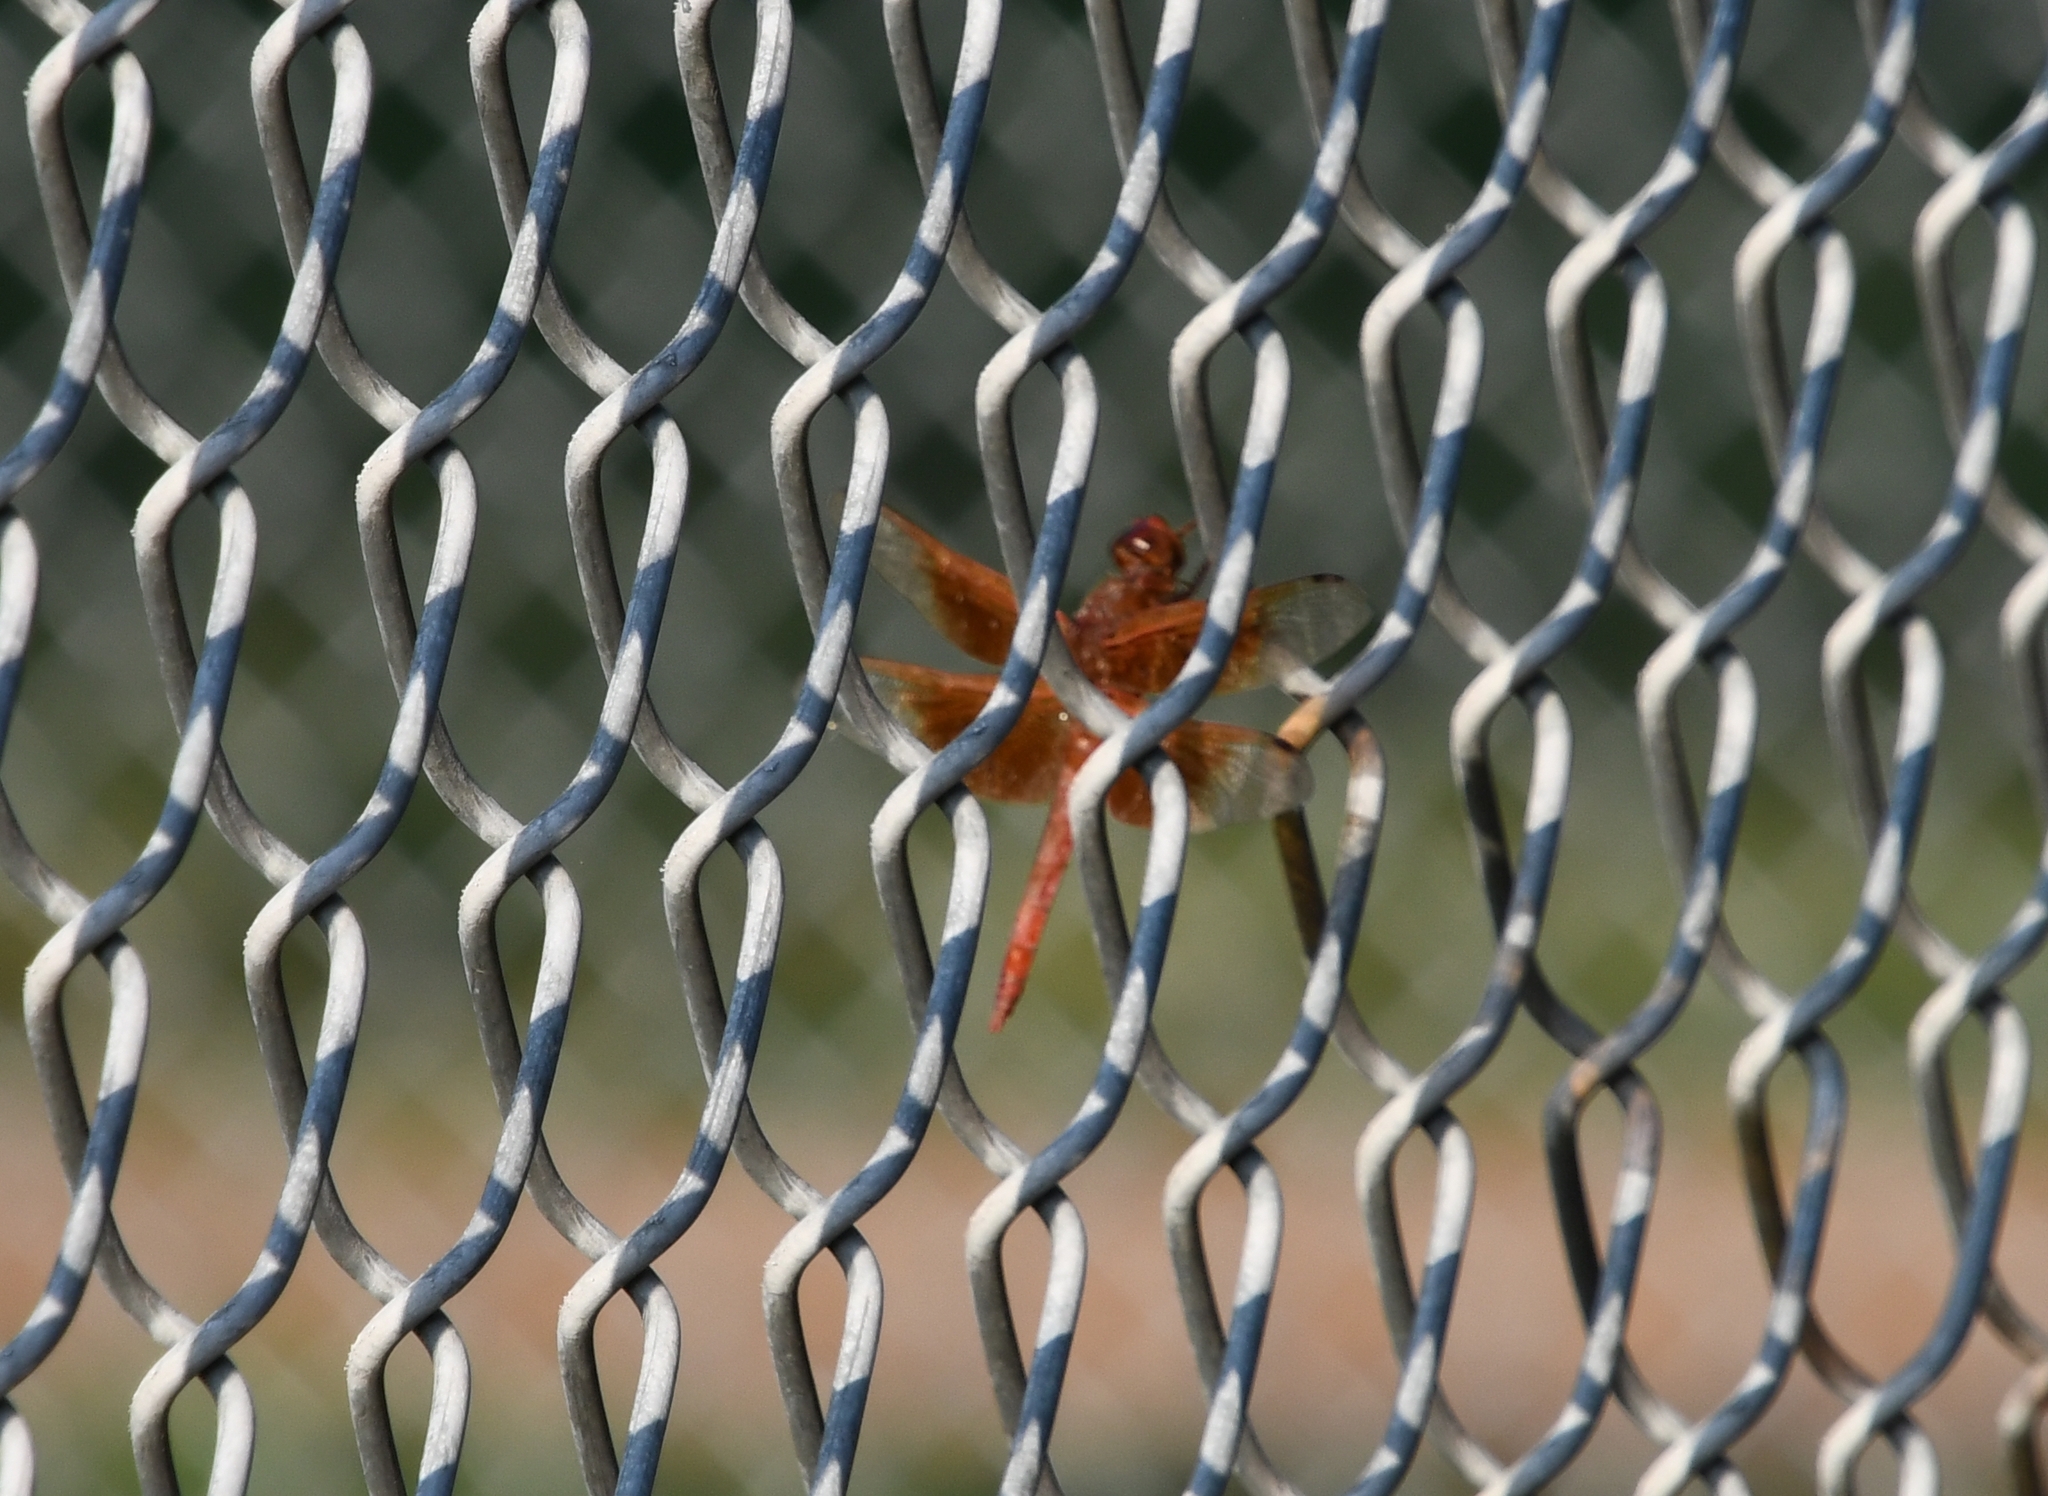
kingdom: Animalia
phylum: Arthropoda
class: Insecta
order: Odonata
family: Libellulidae
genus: Libellula
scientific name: Libellula saturata
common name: Flame skimmer
